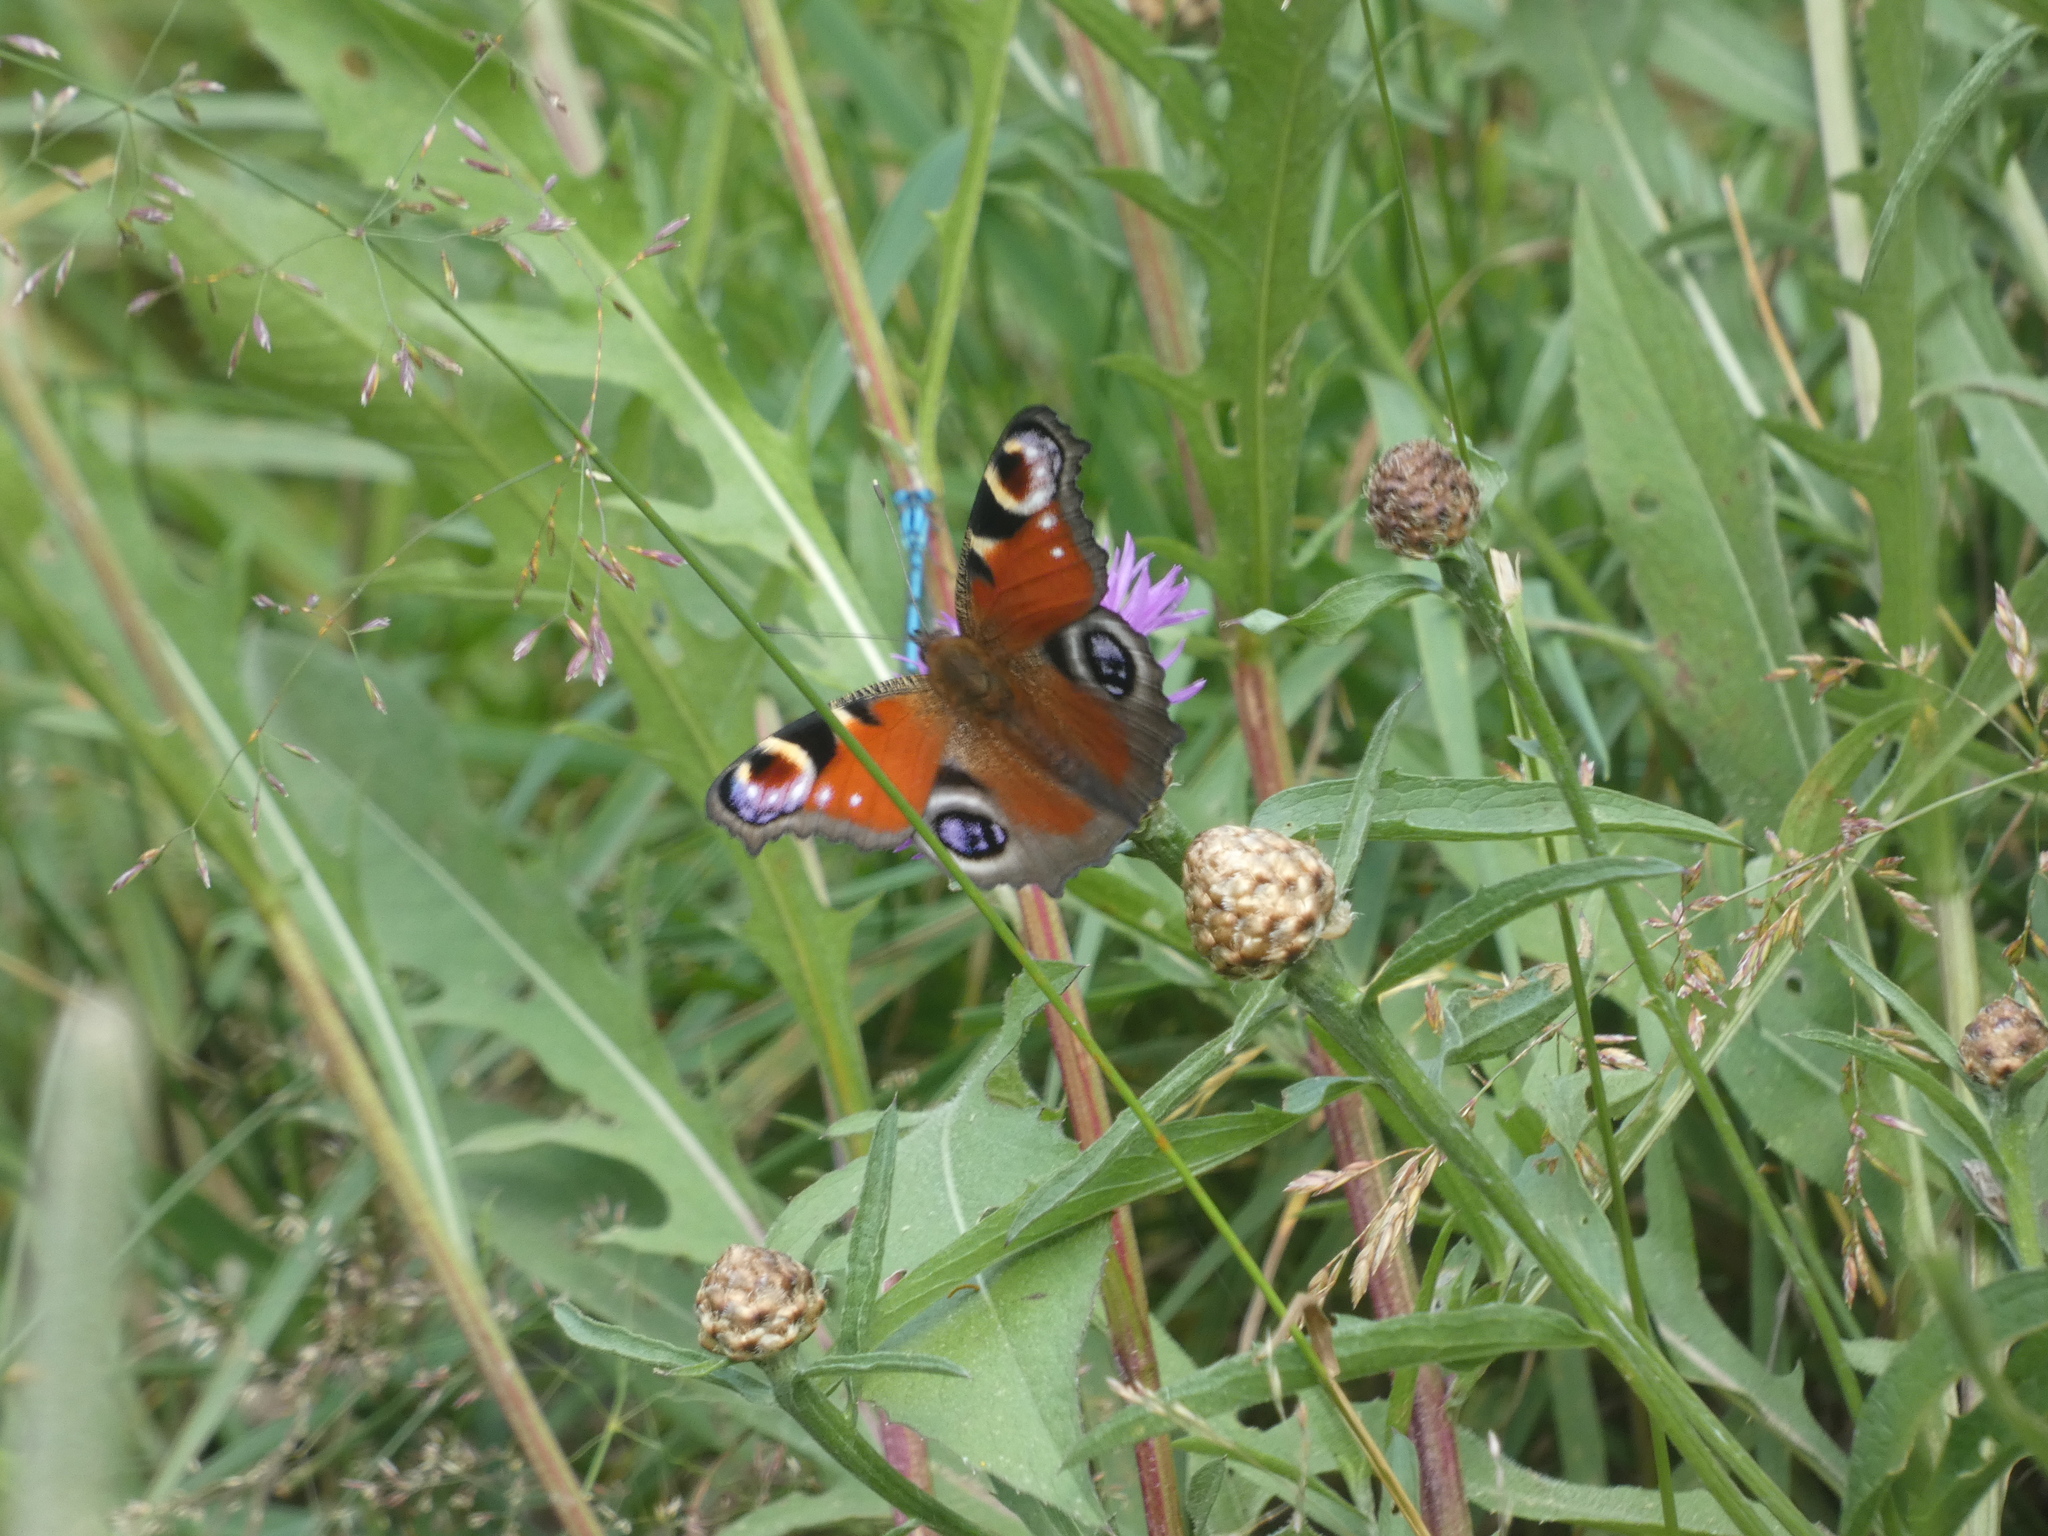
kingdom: Animalia
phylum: Arthropoda
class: Insecta
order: Lepidoptera
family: Nymphalidae
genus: Aglais
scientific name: Aglais io
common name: Peacock
